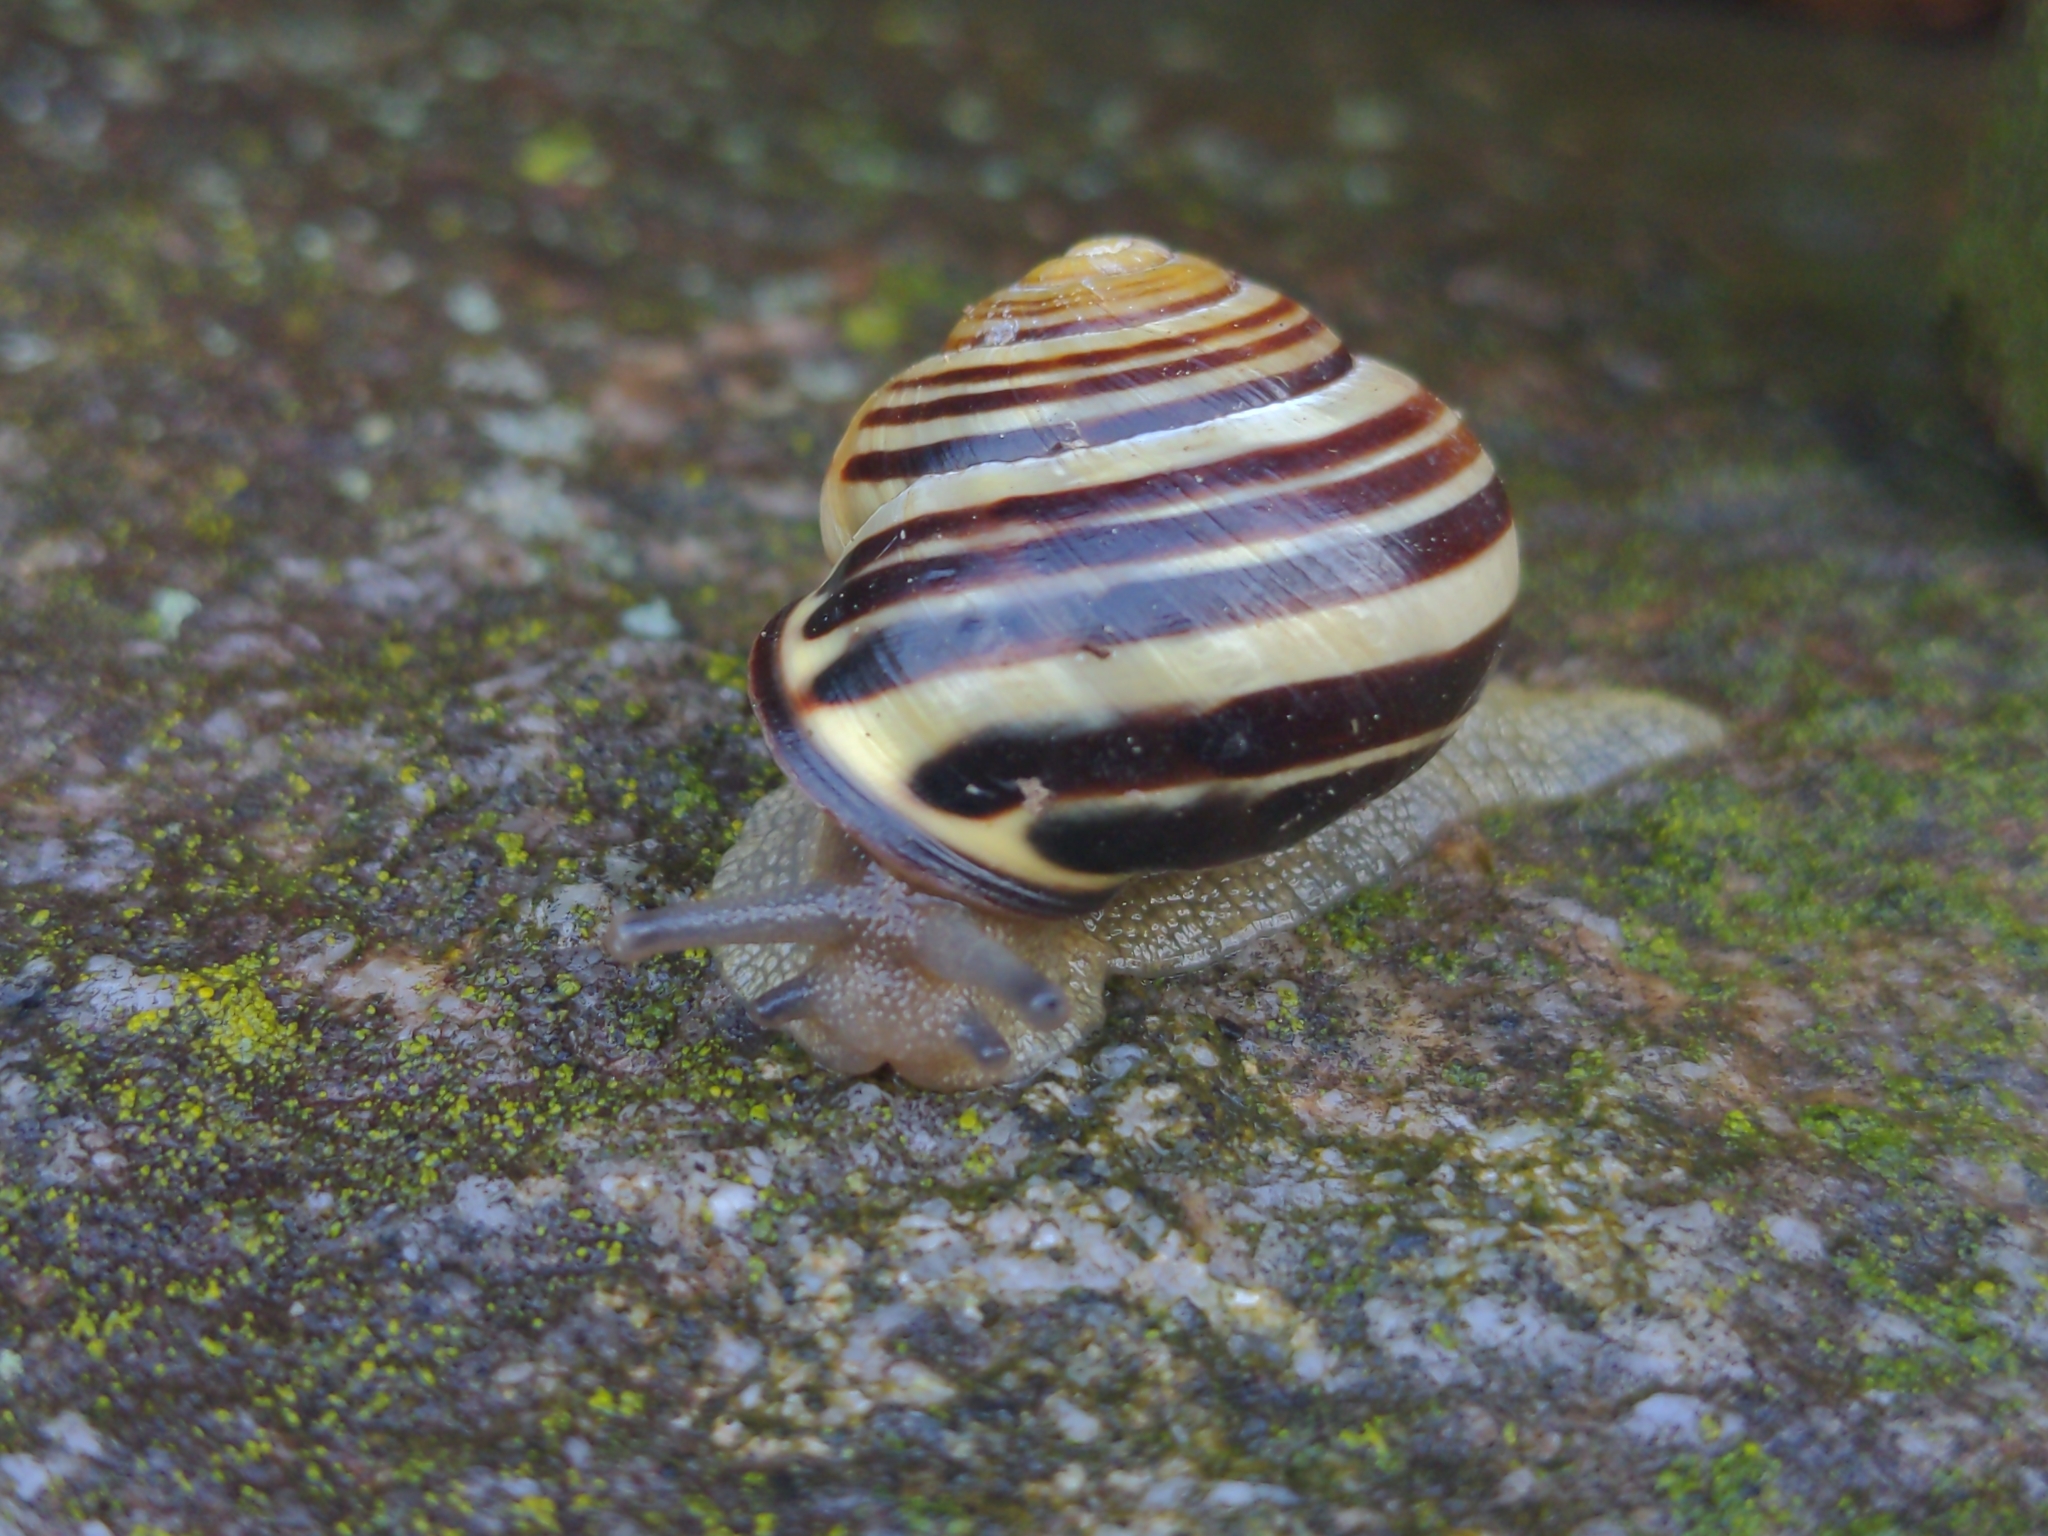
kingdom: Animalia
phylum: Mollusca
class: Gastropoda
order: Stylommatophora
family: Helicidae
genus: Cepaea
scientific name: Cepaea nemoralis
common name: Grovesnail
